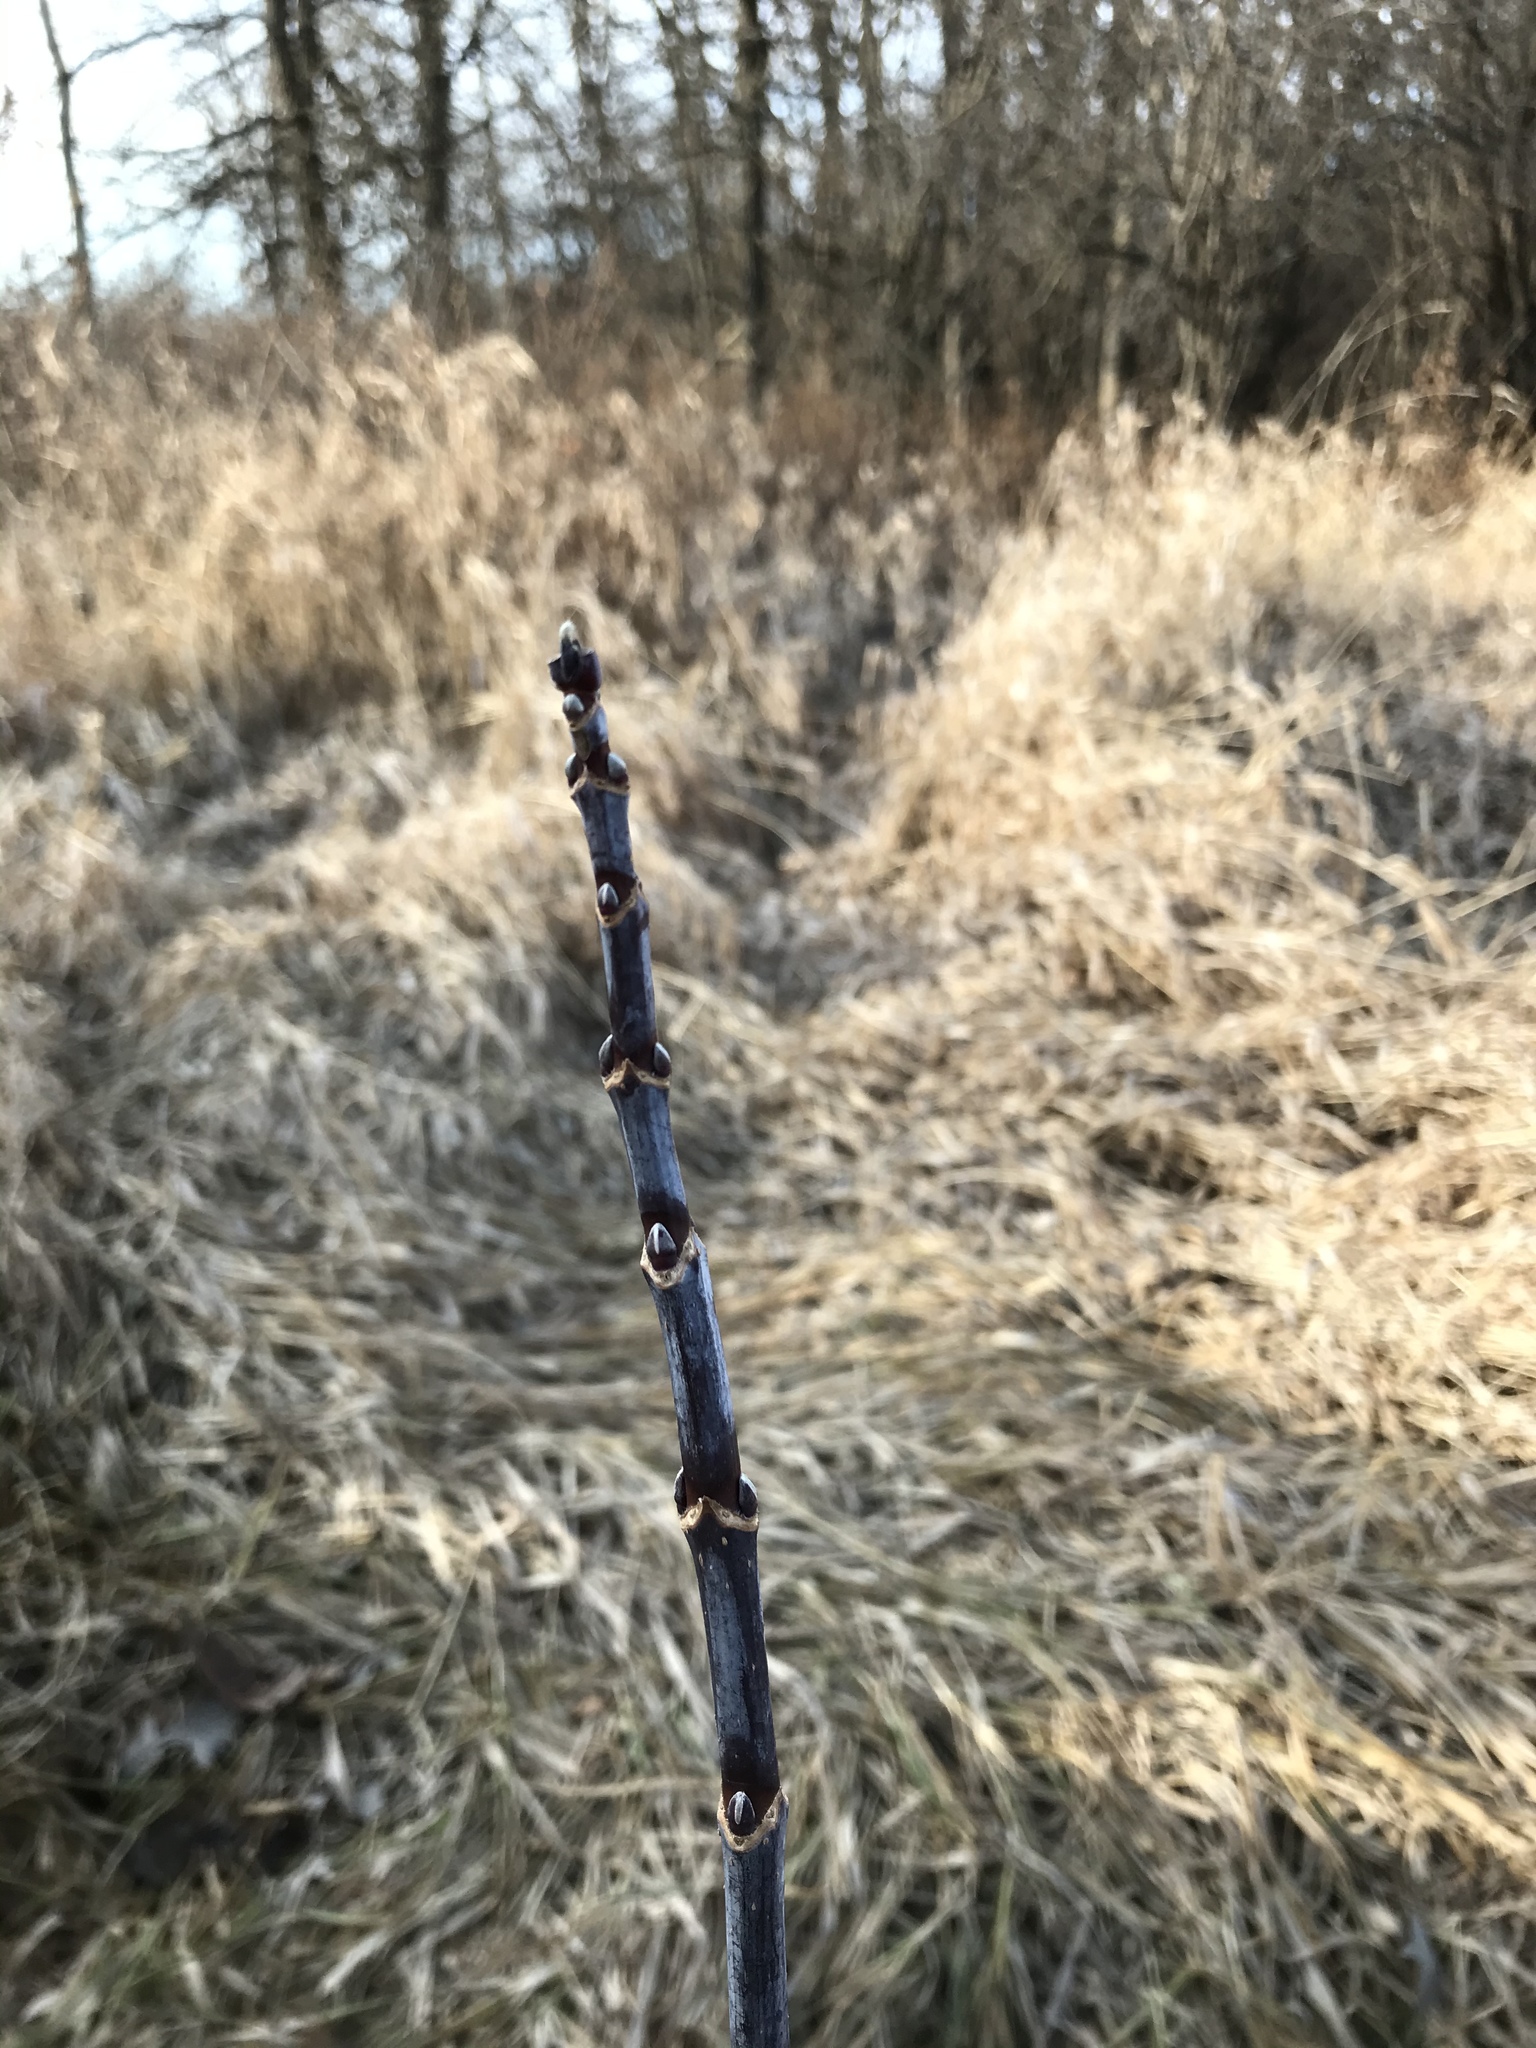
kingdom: Plantae
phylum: Tracheophyta
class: Magnoliopsida
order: Sapindales
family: Sapindaceae
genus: Acer
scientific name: Acer negundo
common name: Ashleaf maple
